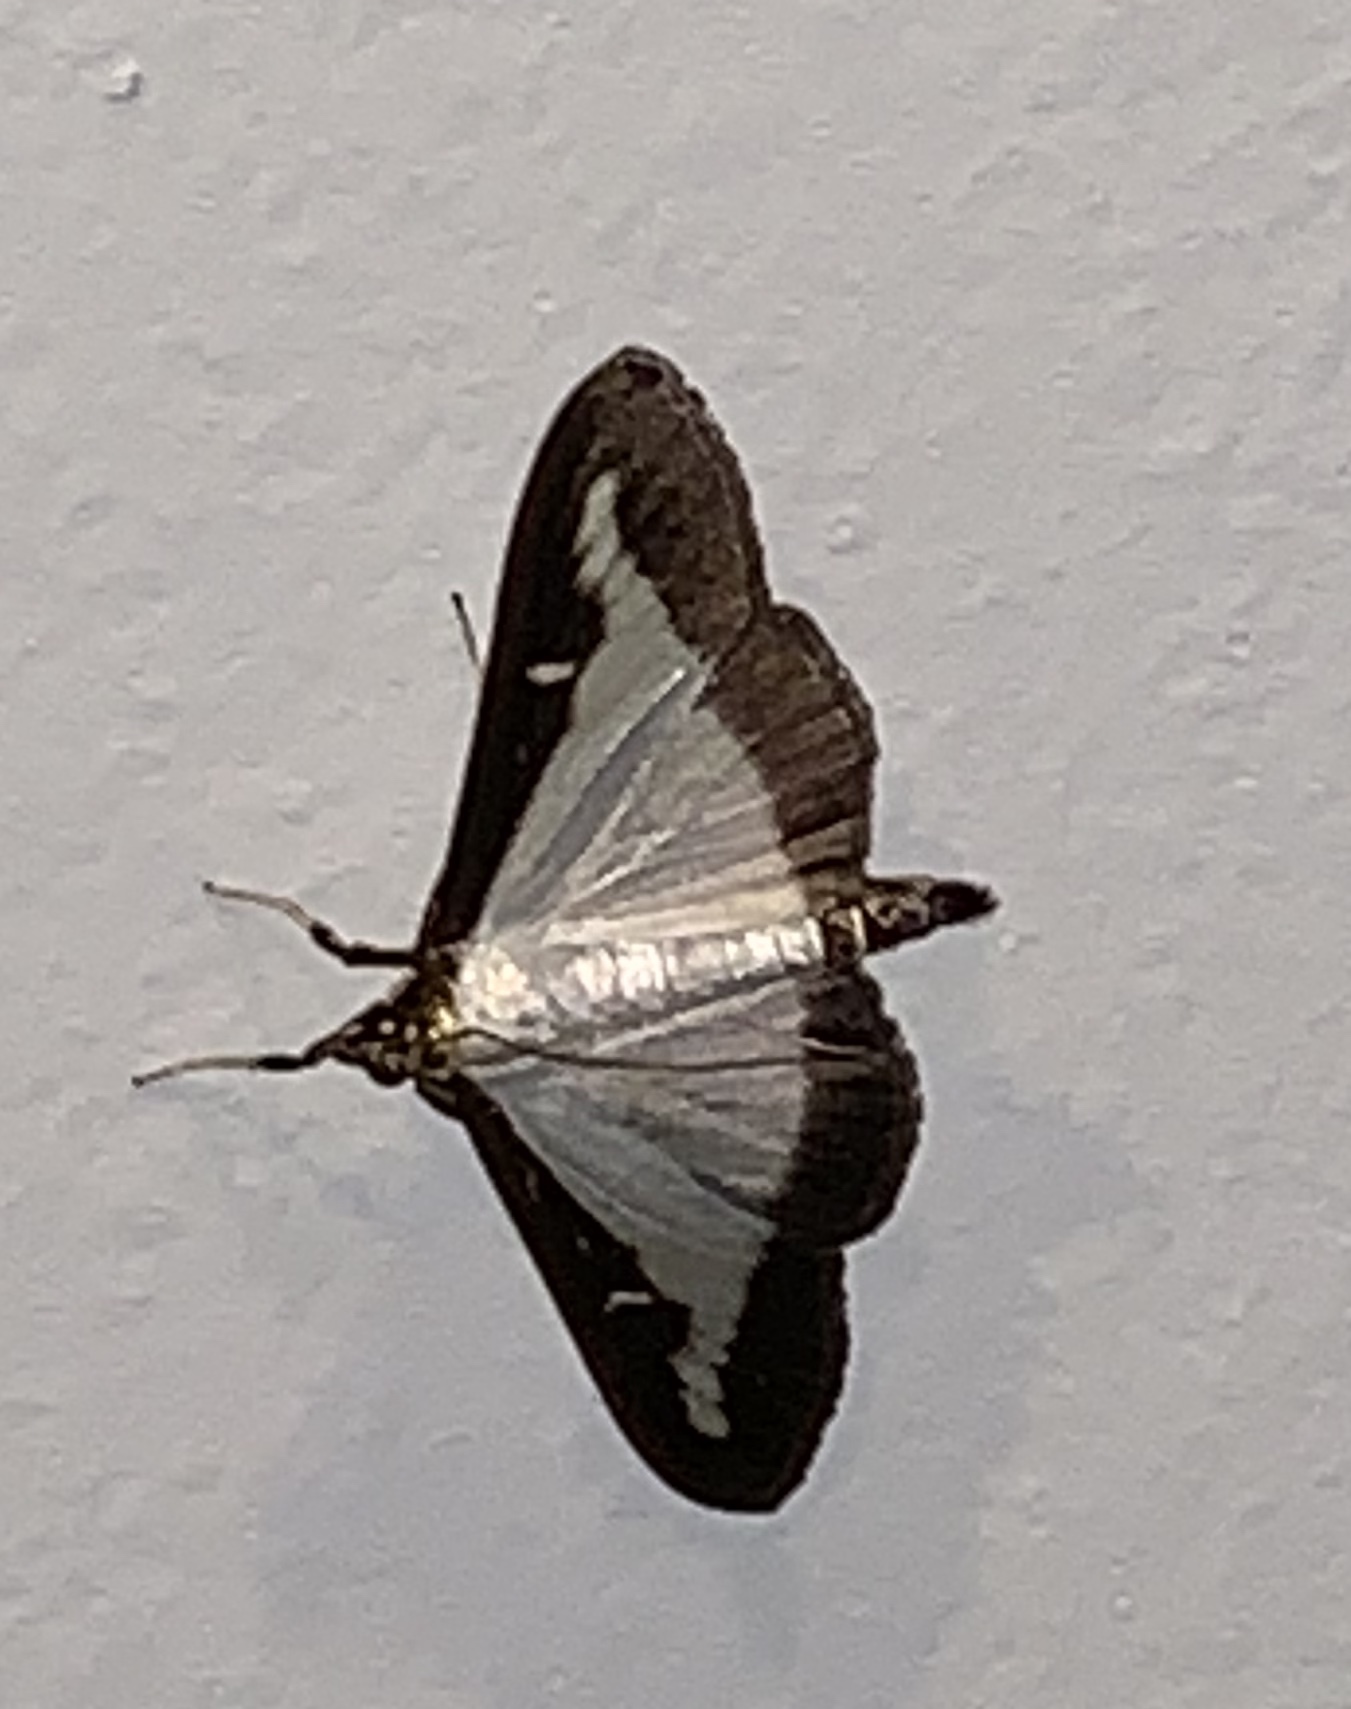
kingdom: Animalia
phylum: Arthropoda
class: Insecta
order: Lepidoptera
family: Crambidae
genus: Cydalima
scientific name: Cydalima perspectalis
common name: Box tree moth
